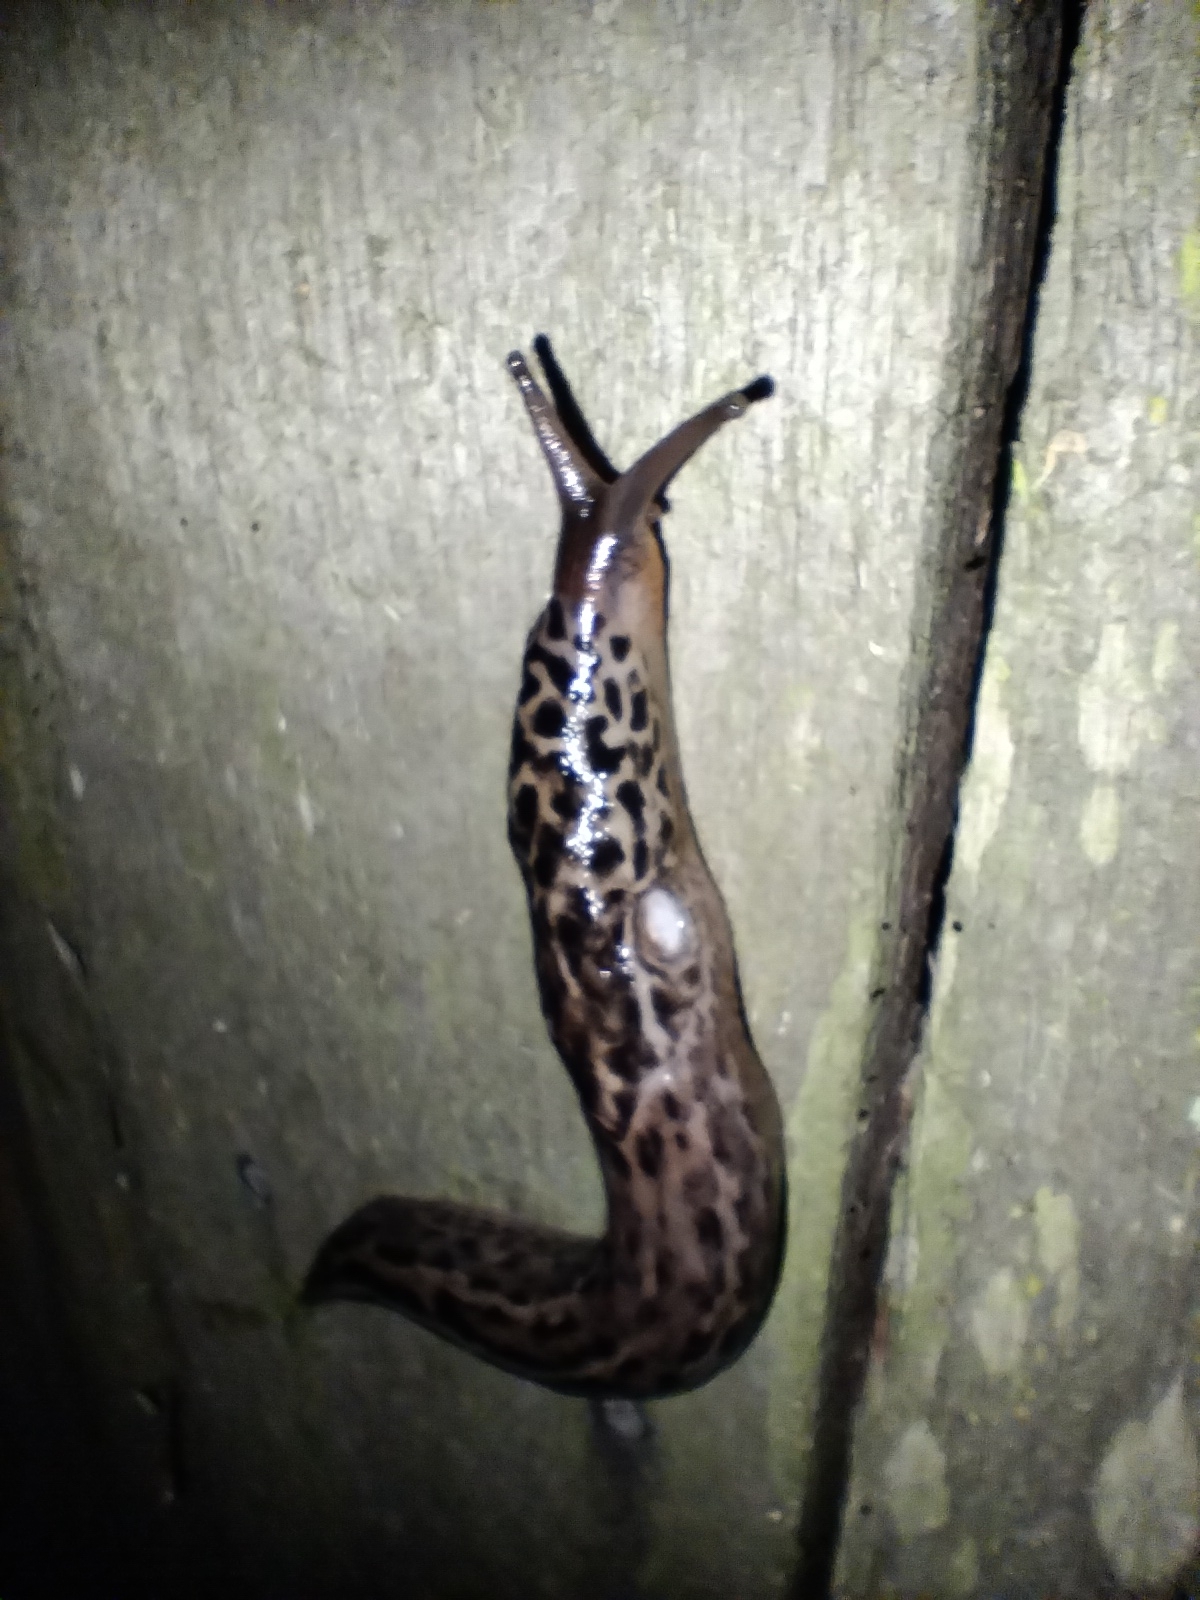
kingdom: Animalia
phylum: Mollusca
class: Gastropoda
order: Stylommatophora
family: Limacidae
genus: Limax
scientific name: Limax maximus
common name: Great grey slug
